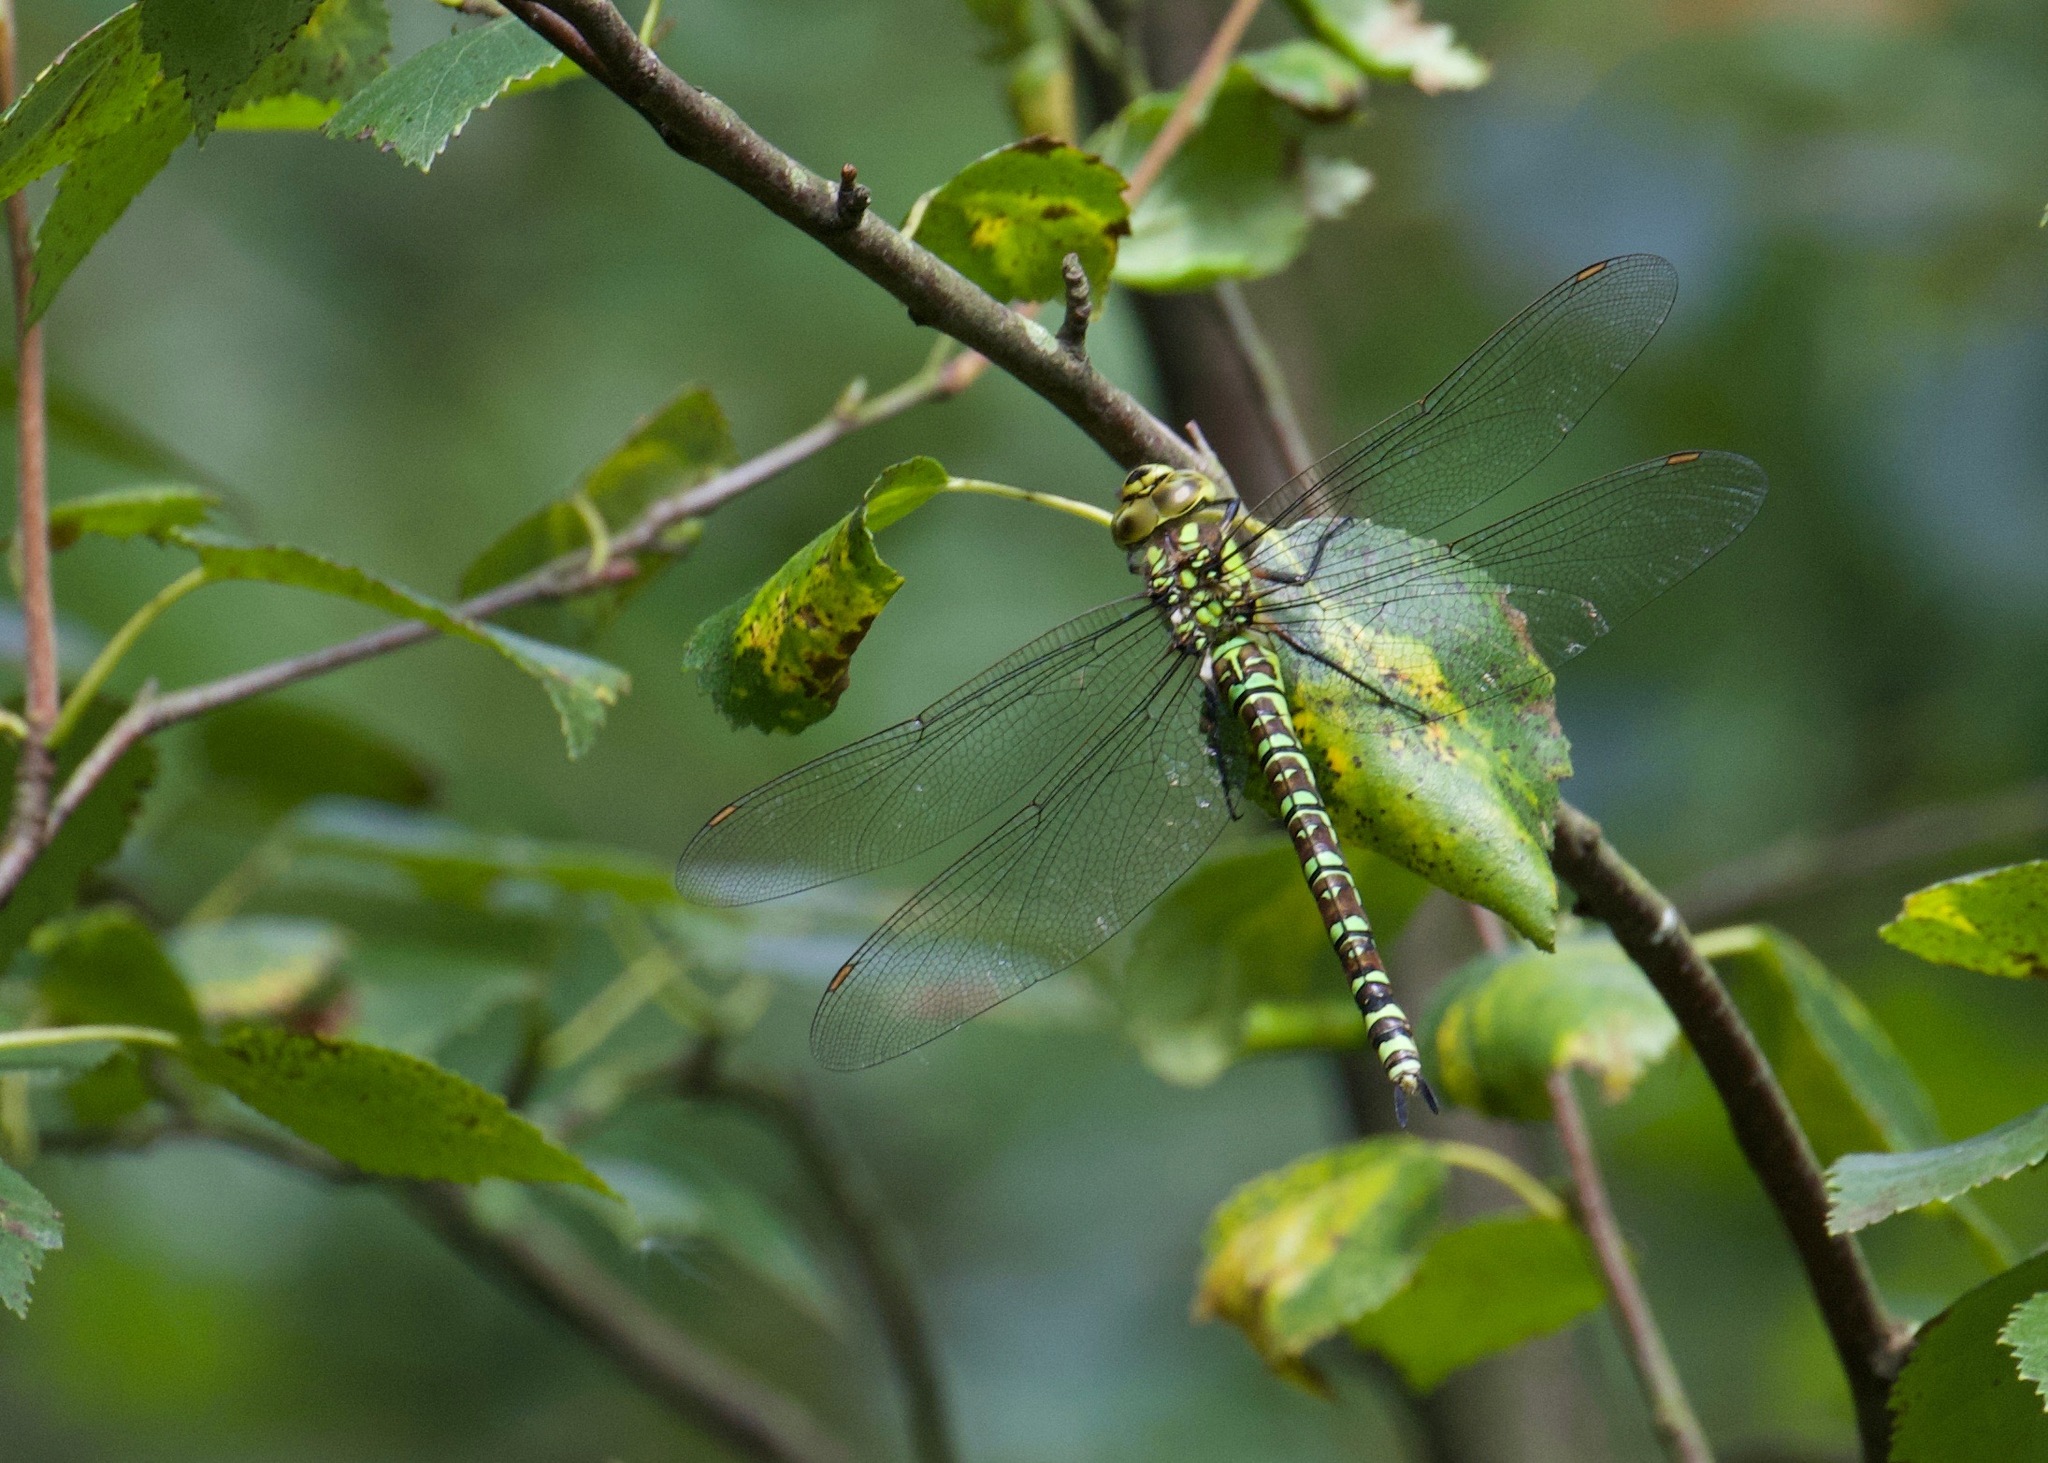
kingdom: Animalia
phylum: Arthropoda
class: Insecta
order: Odonata
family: Aeshnidae
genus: Aeshna
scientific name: Aeshna cyanea
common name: Southern hawker
